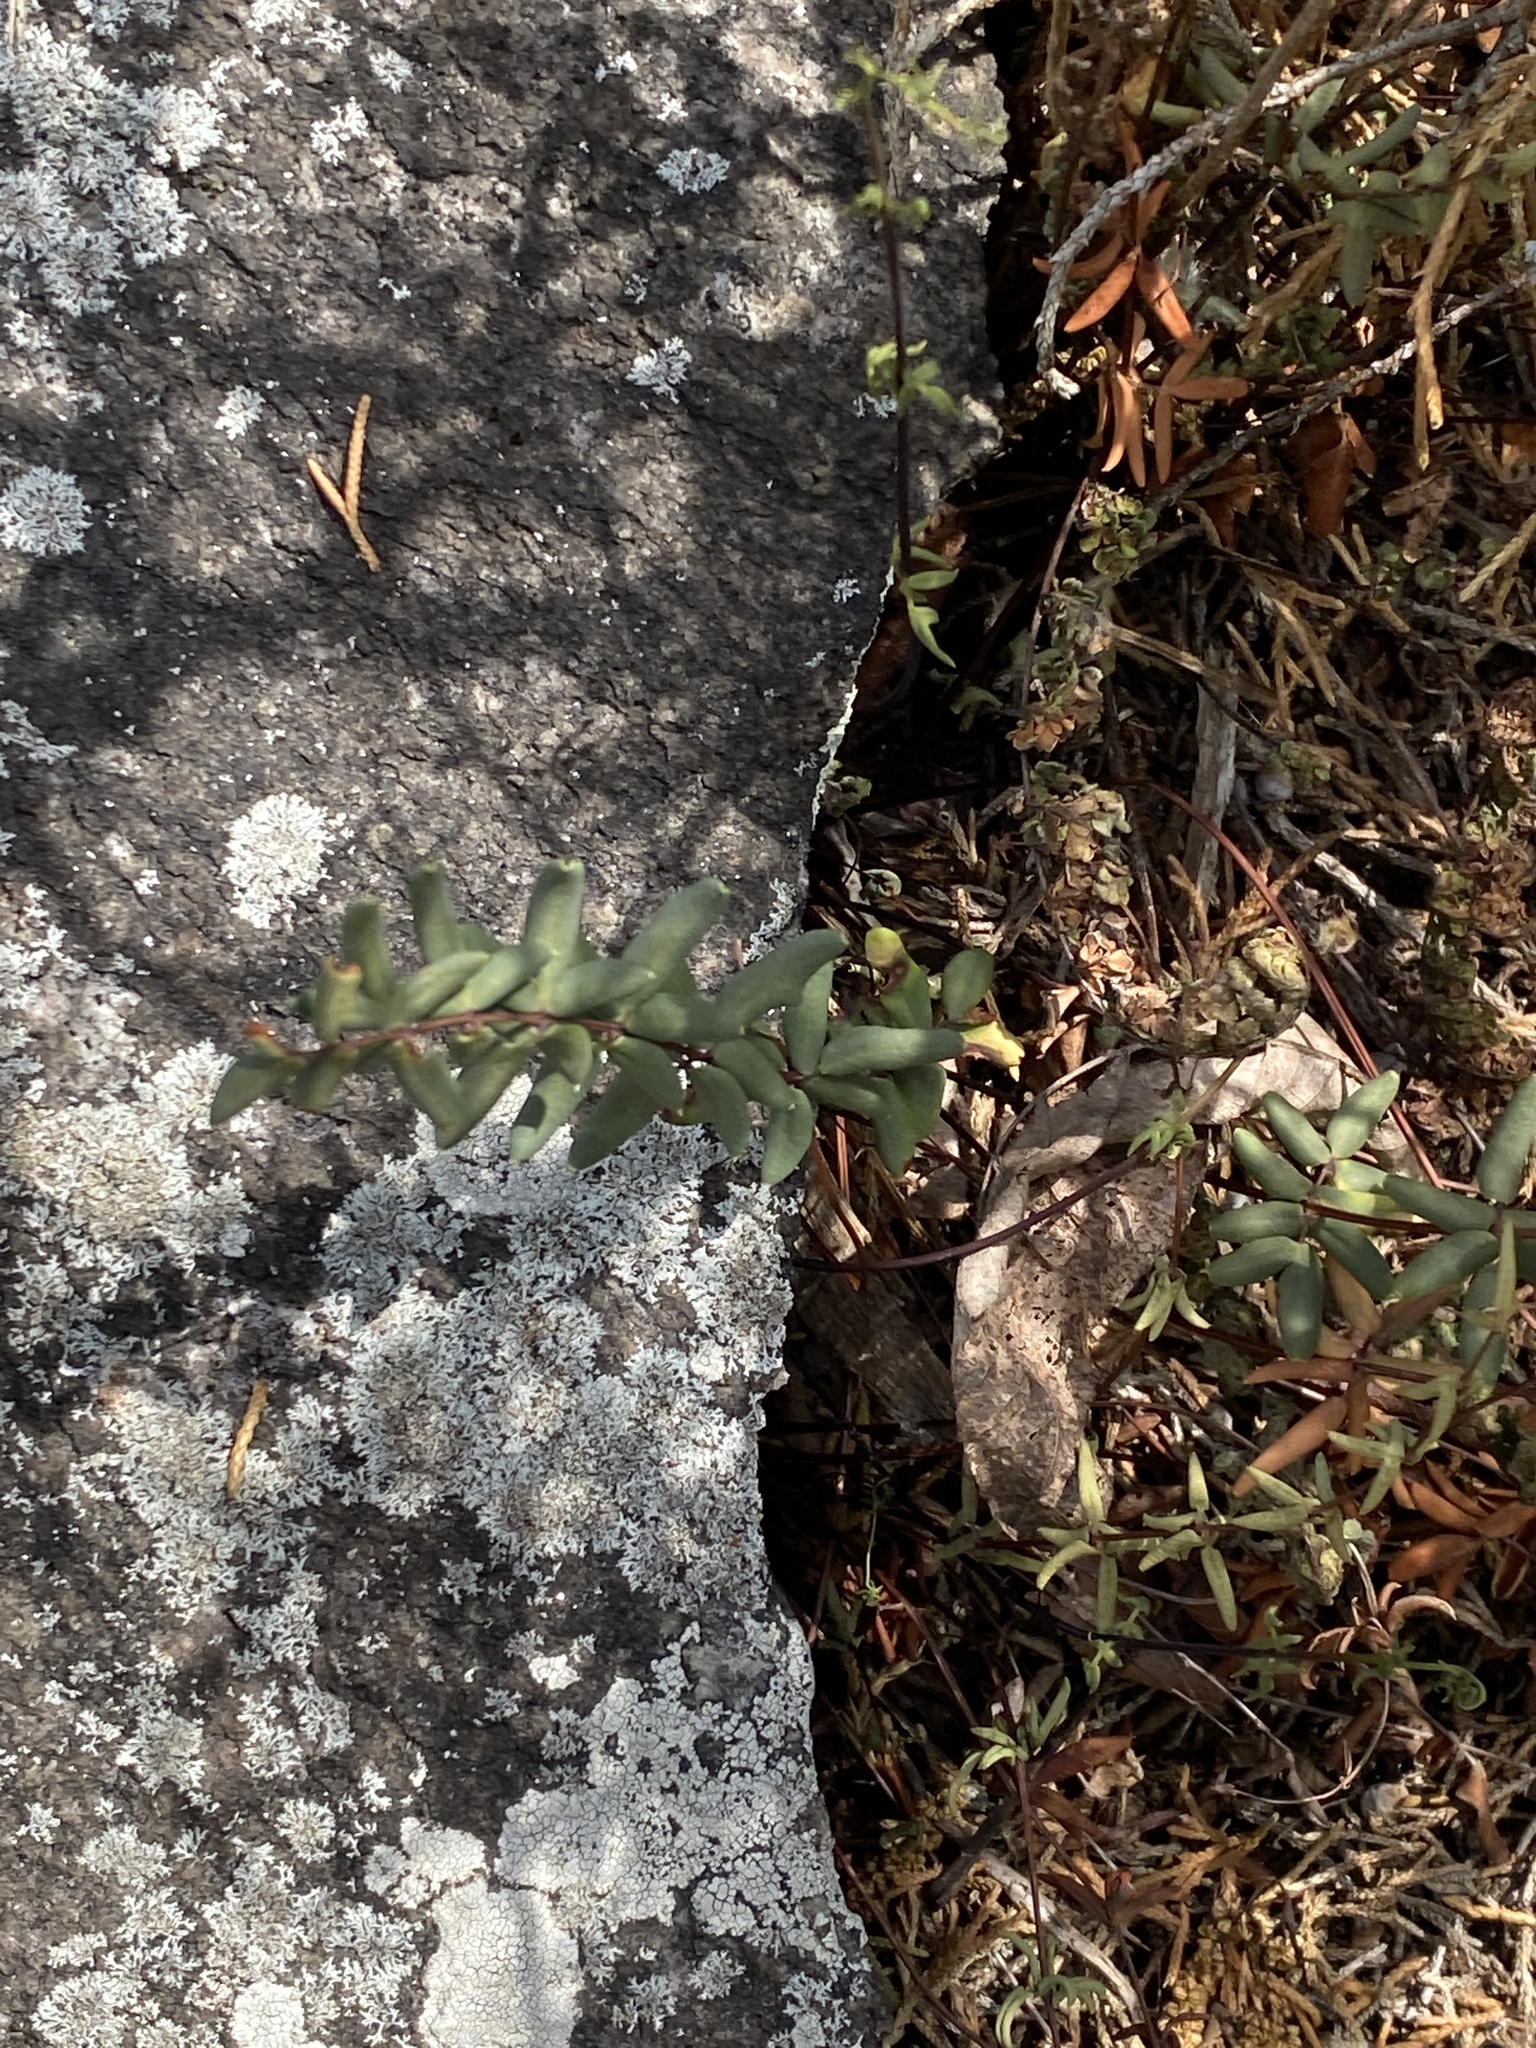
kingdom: Plantae
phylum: Tracheophyta
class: Polypodiopsida
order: Polypodiales
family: Pteridaceae
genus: Pellaea
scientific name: Pellaea wrightiana
